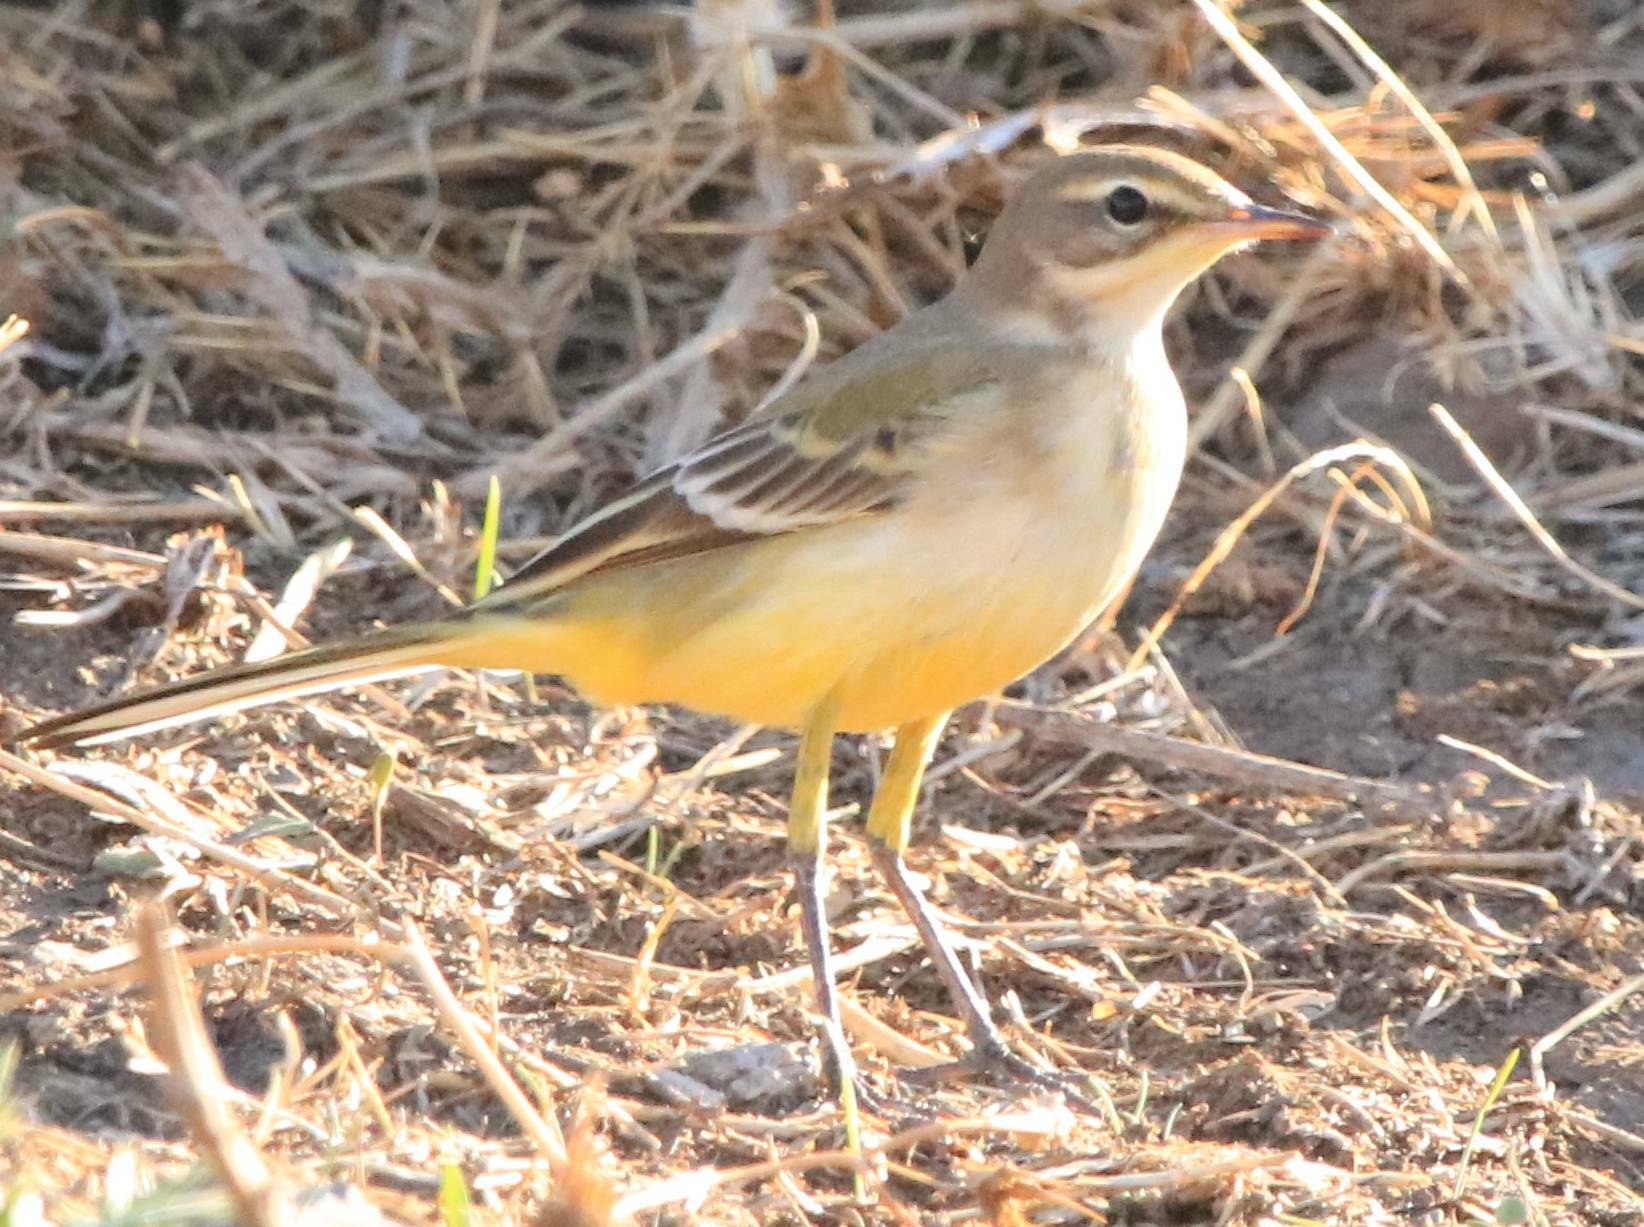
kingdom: Animalia
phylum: Chordata
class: Aves
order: Passeriformes
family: Motacillidae
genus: Motacilla
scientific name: Motacilla flava
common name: Western yellow wagtail
